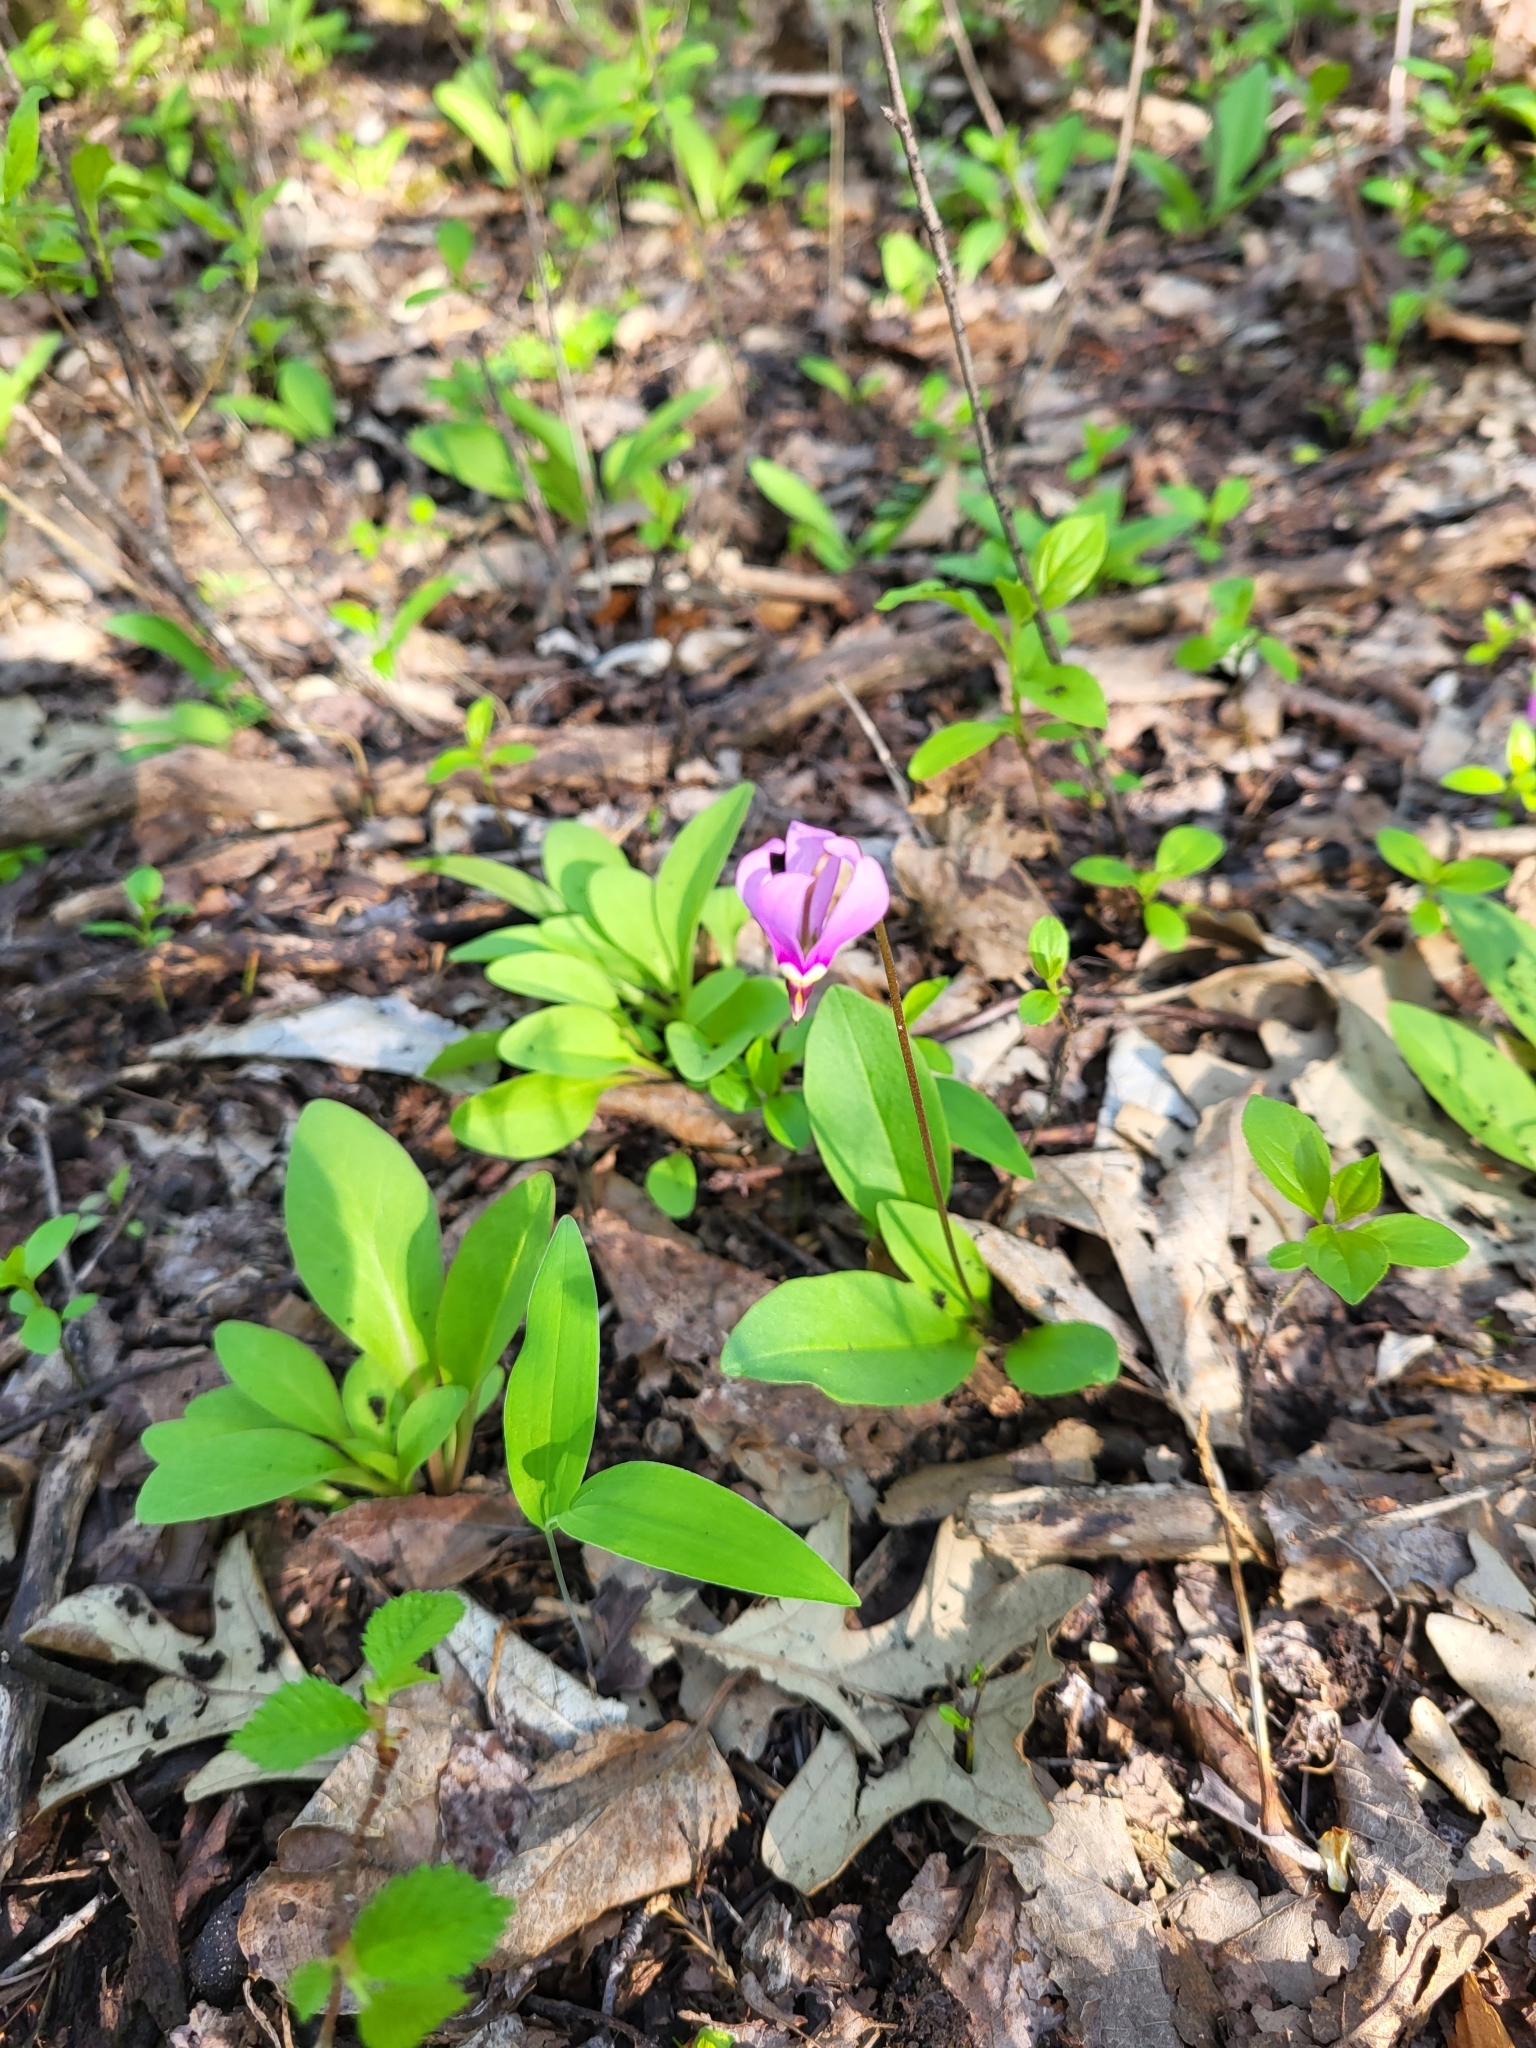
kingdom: Plantae
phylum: Tracheophyta
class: Magnoliopsida
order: Ericales
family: Primulaceae
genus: Dodecatheon
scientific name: Dodecatheon amethystinum
